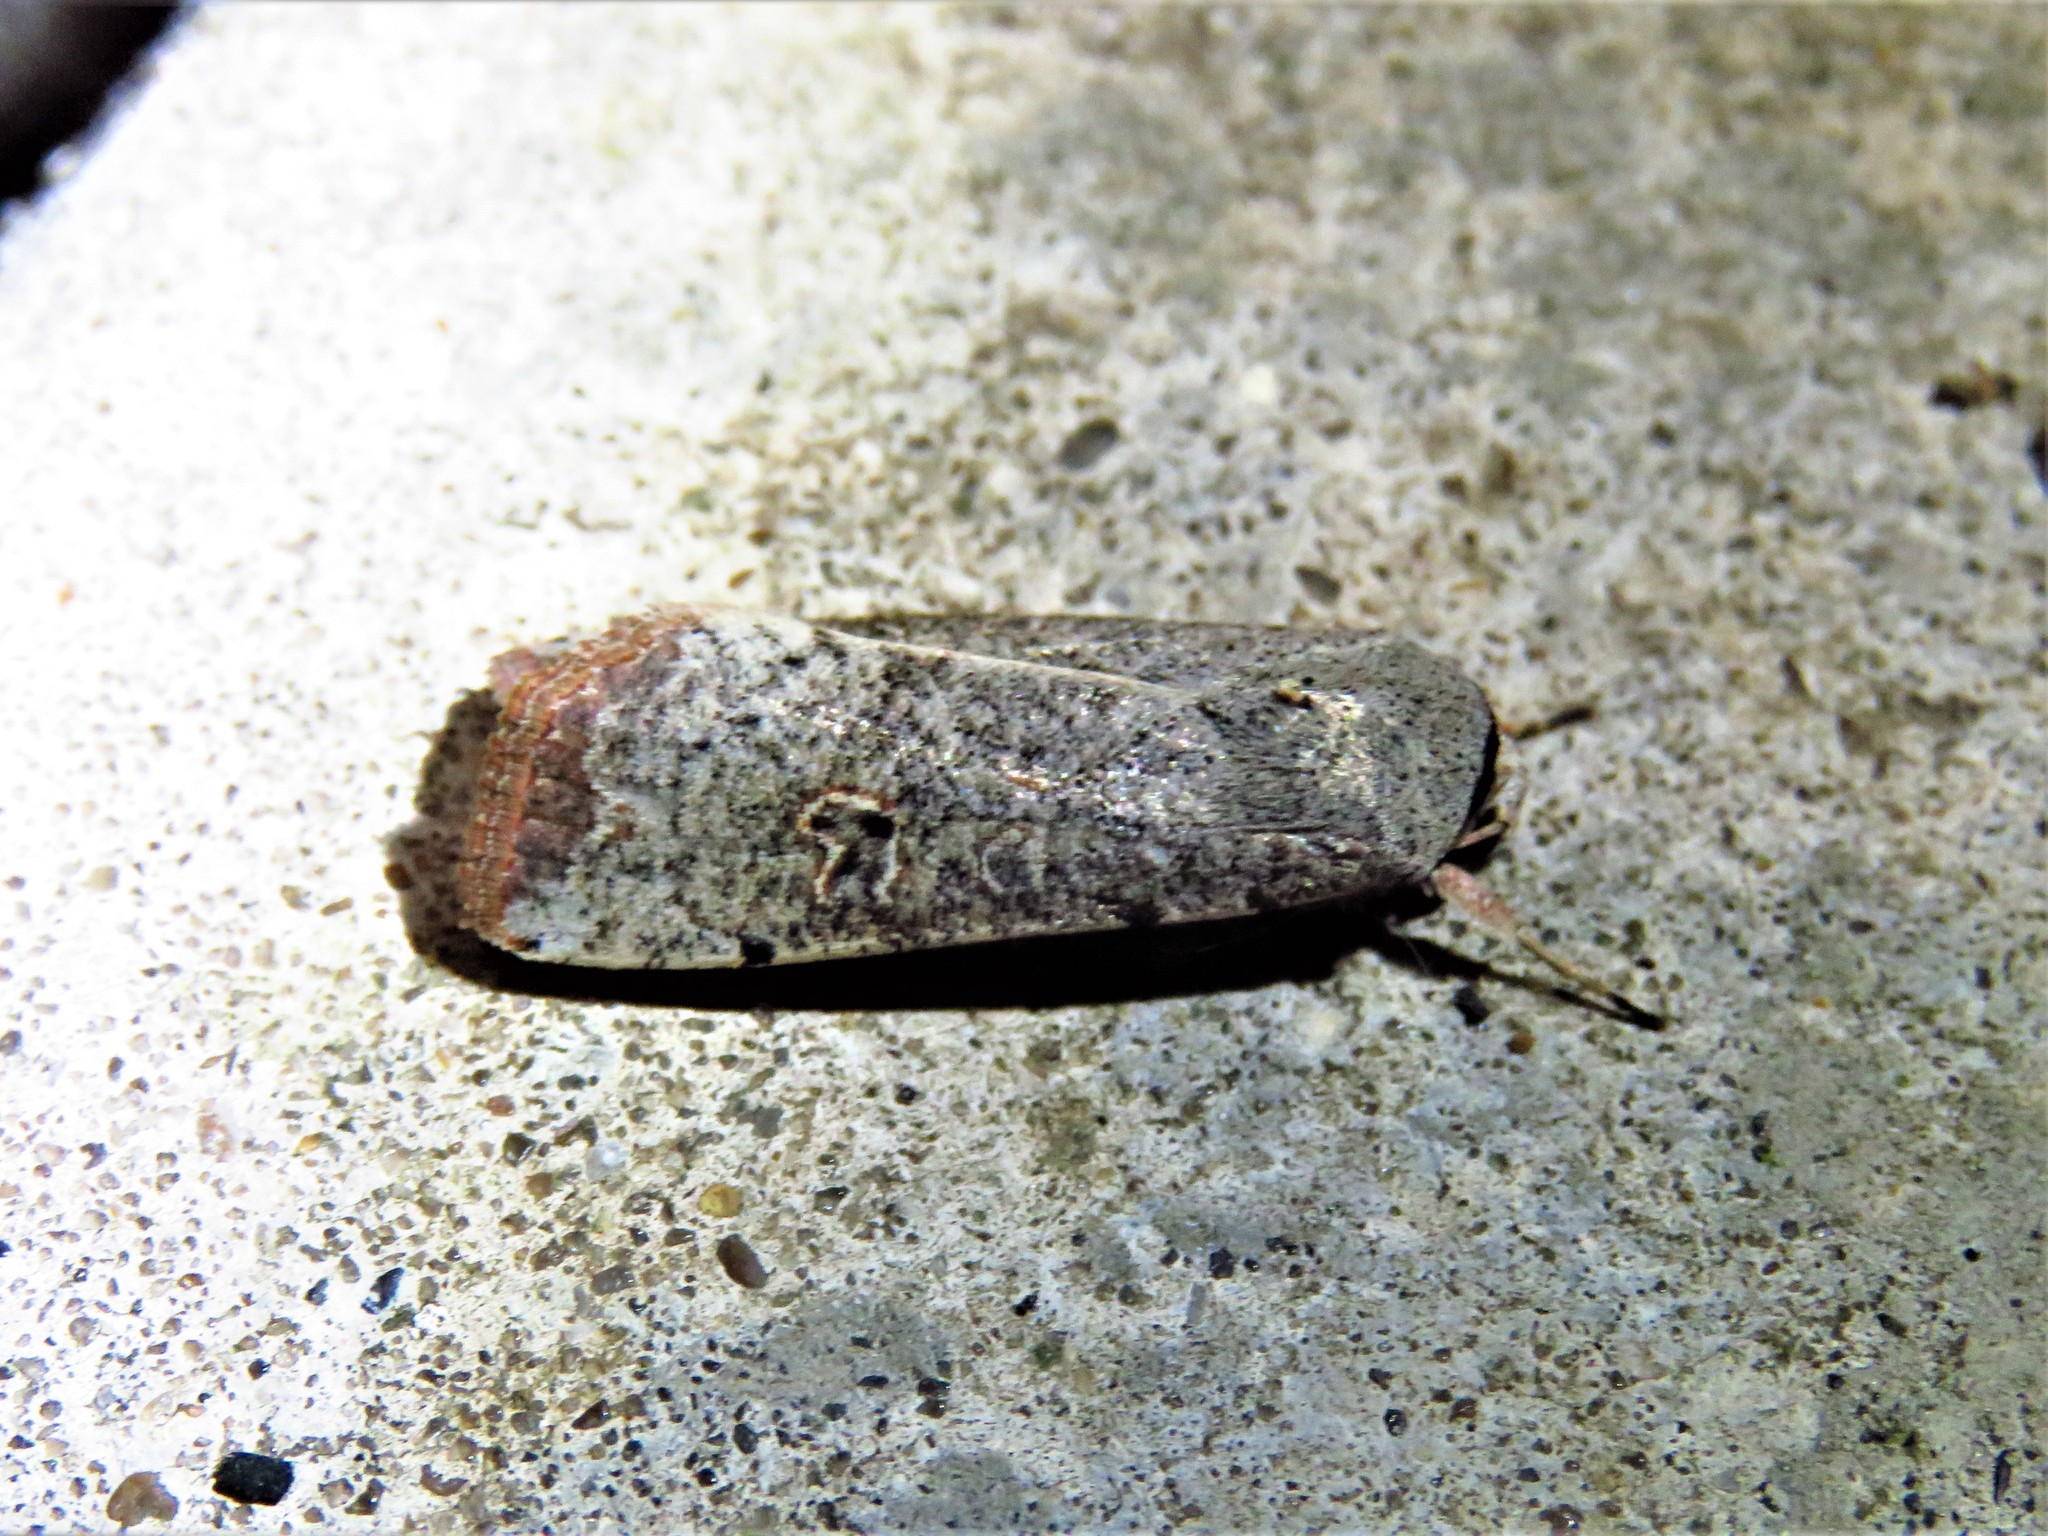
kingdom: Animalia
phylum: Arthropoda
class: Insecta
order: Lepidoptera
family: Noctuidae
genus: Anicla
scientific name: Anicla infecta
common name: Green cutworm
